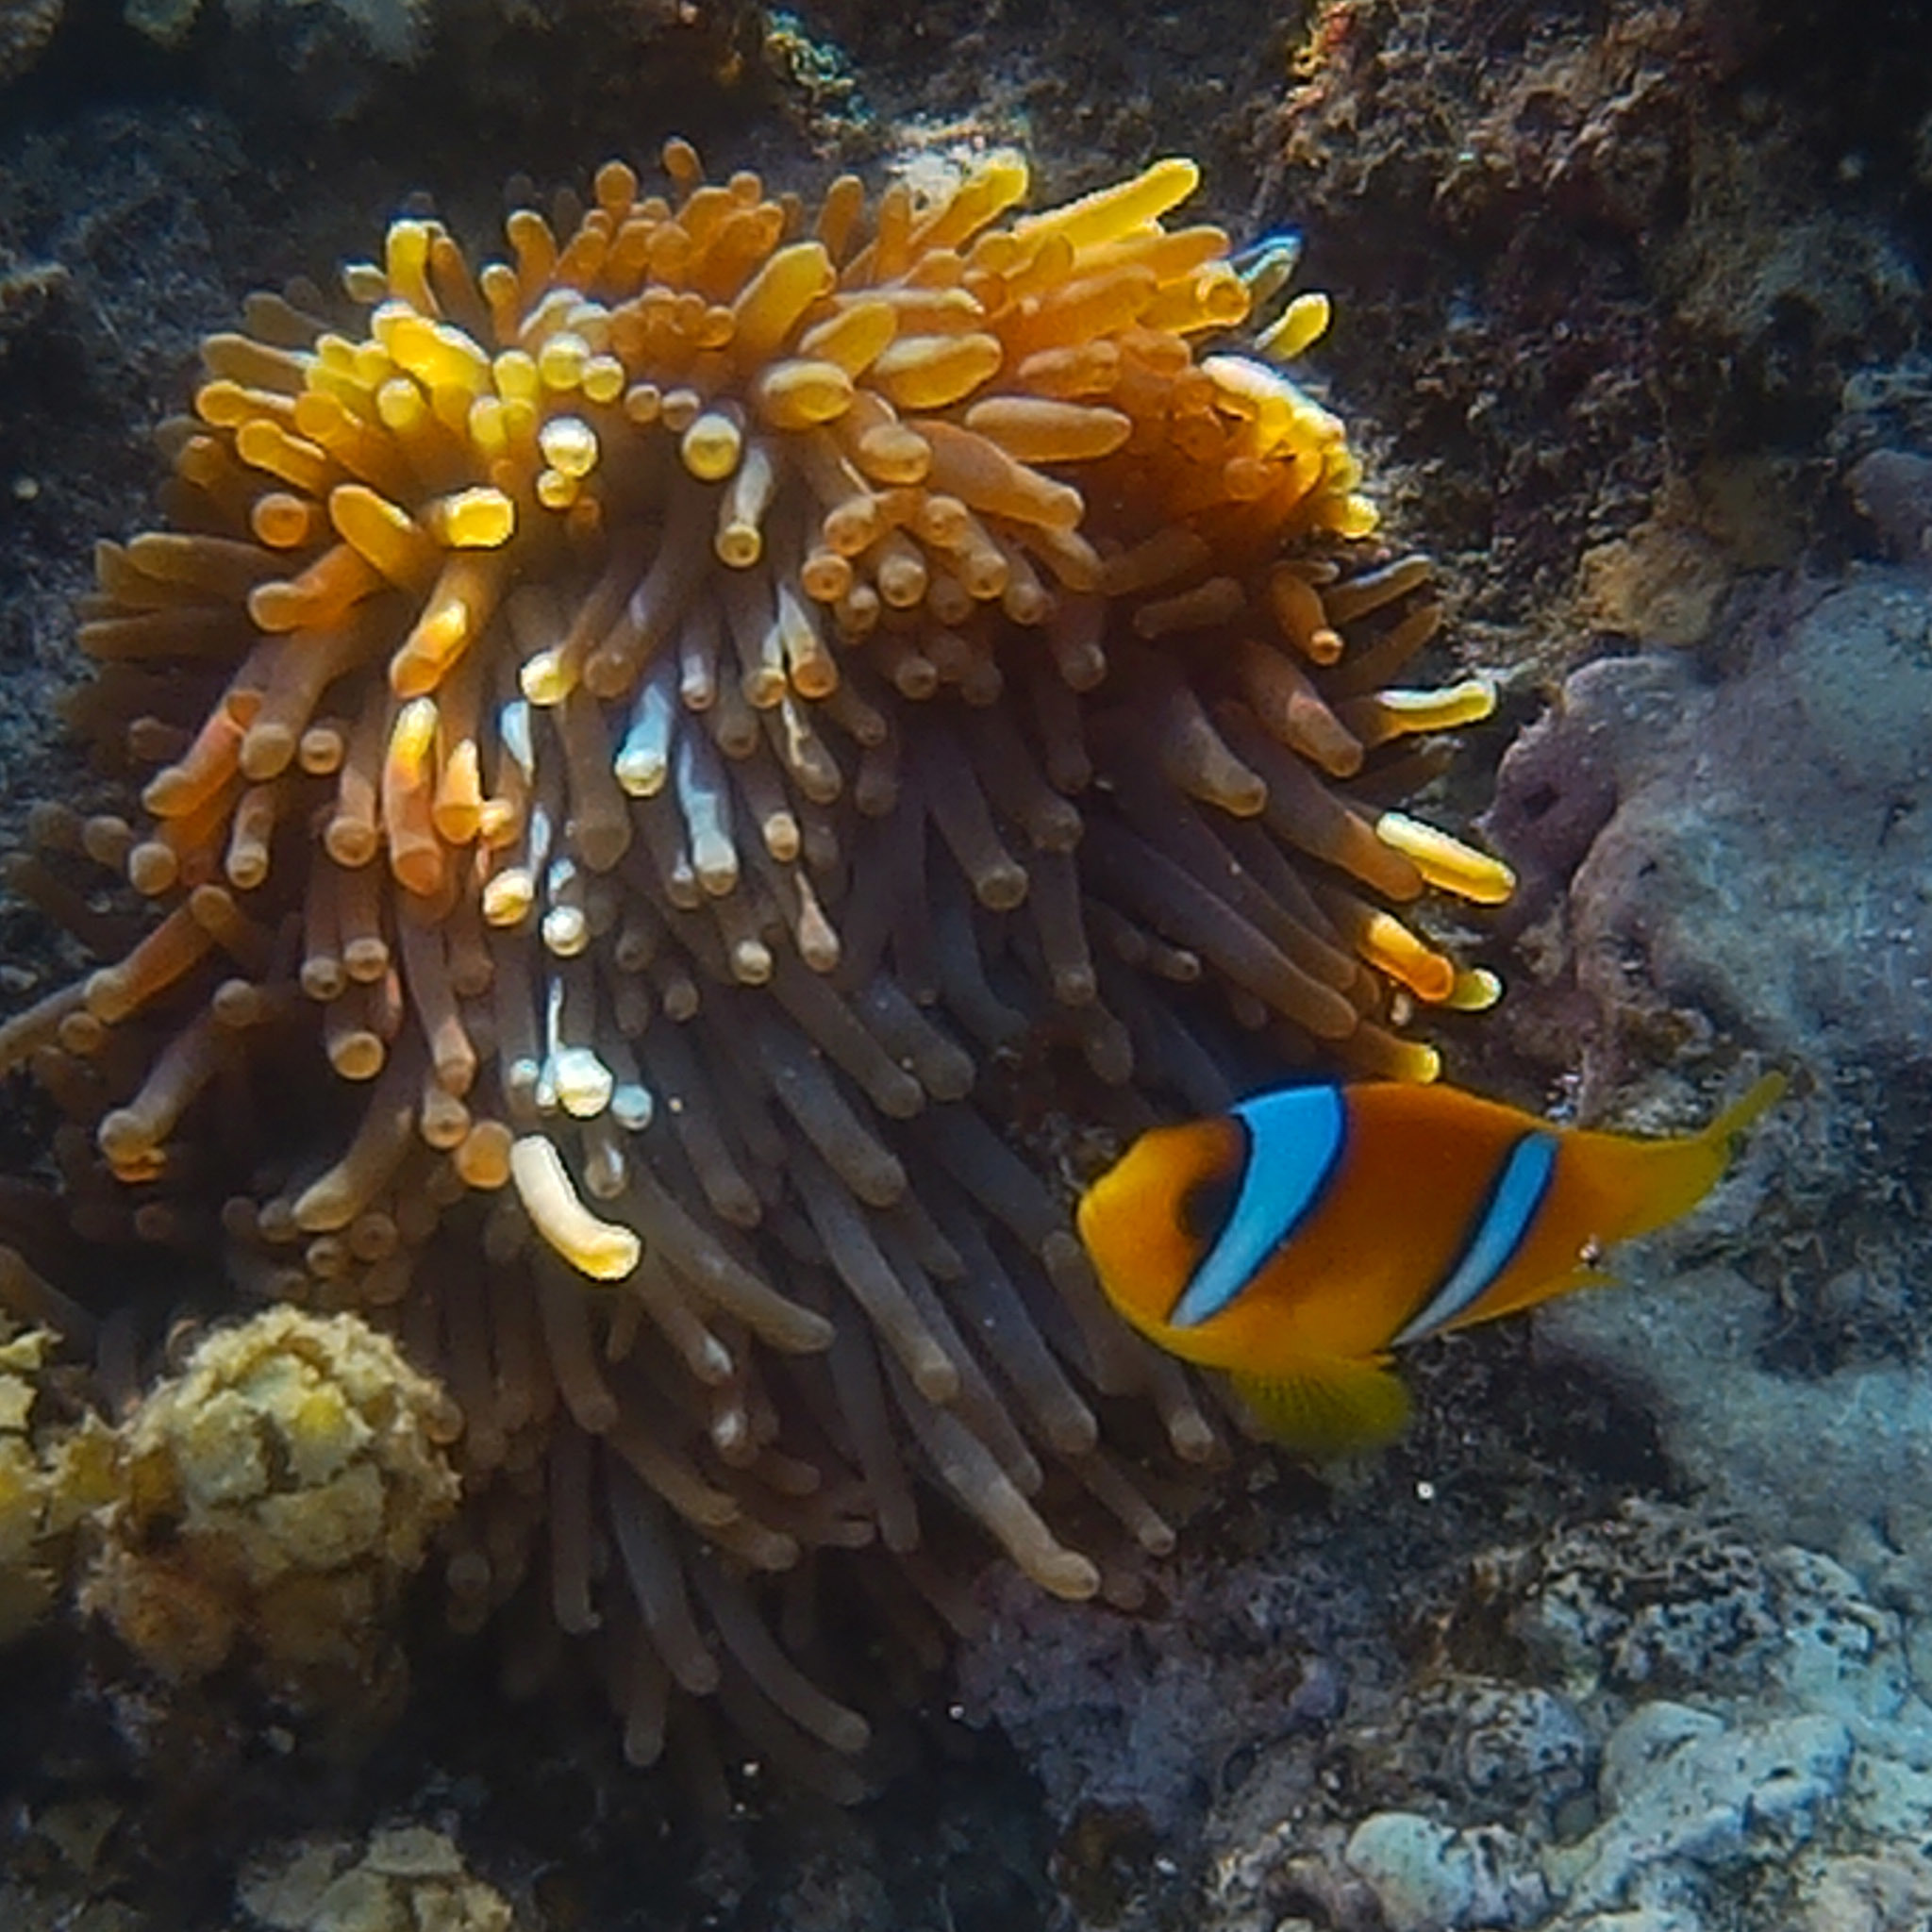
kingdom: Animalia
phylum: Chordata
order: Perciformes
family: Pomacentridae
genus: Amphiprion
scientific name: Amphiprion bicinctus
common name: Two-banded anemonefish
